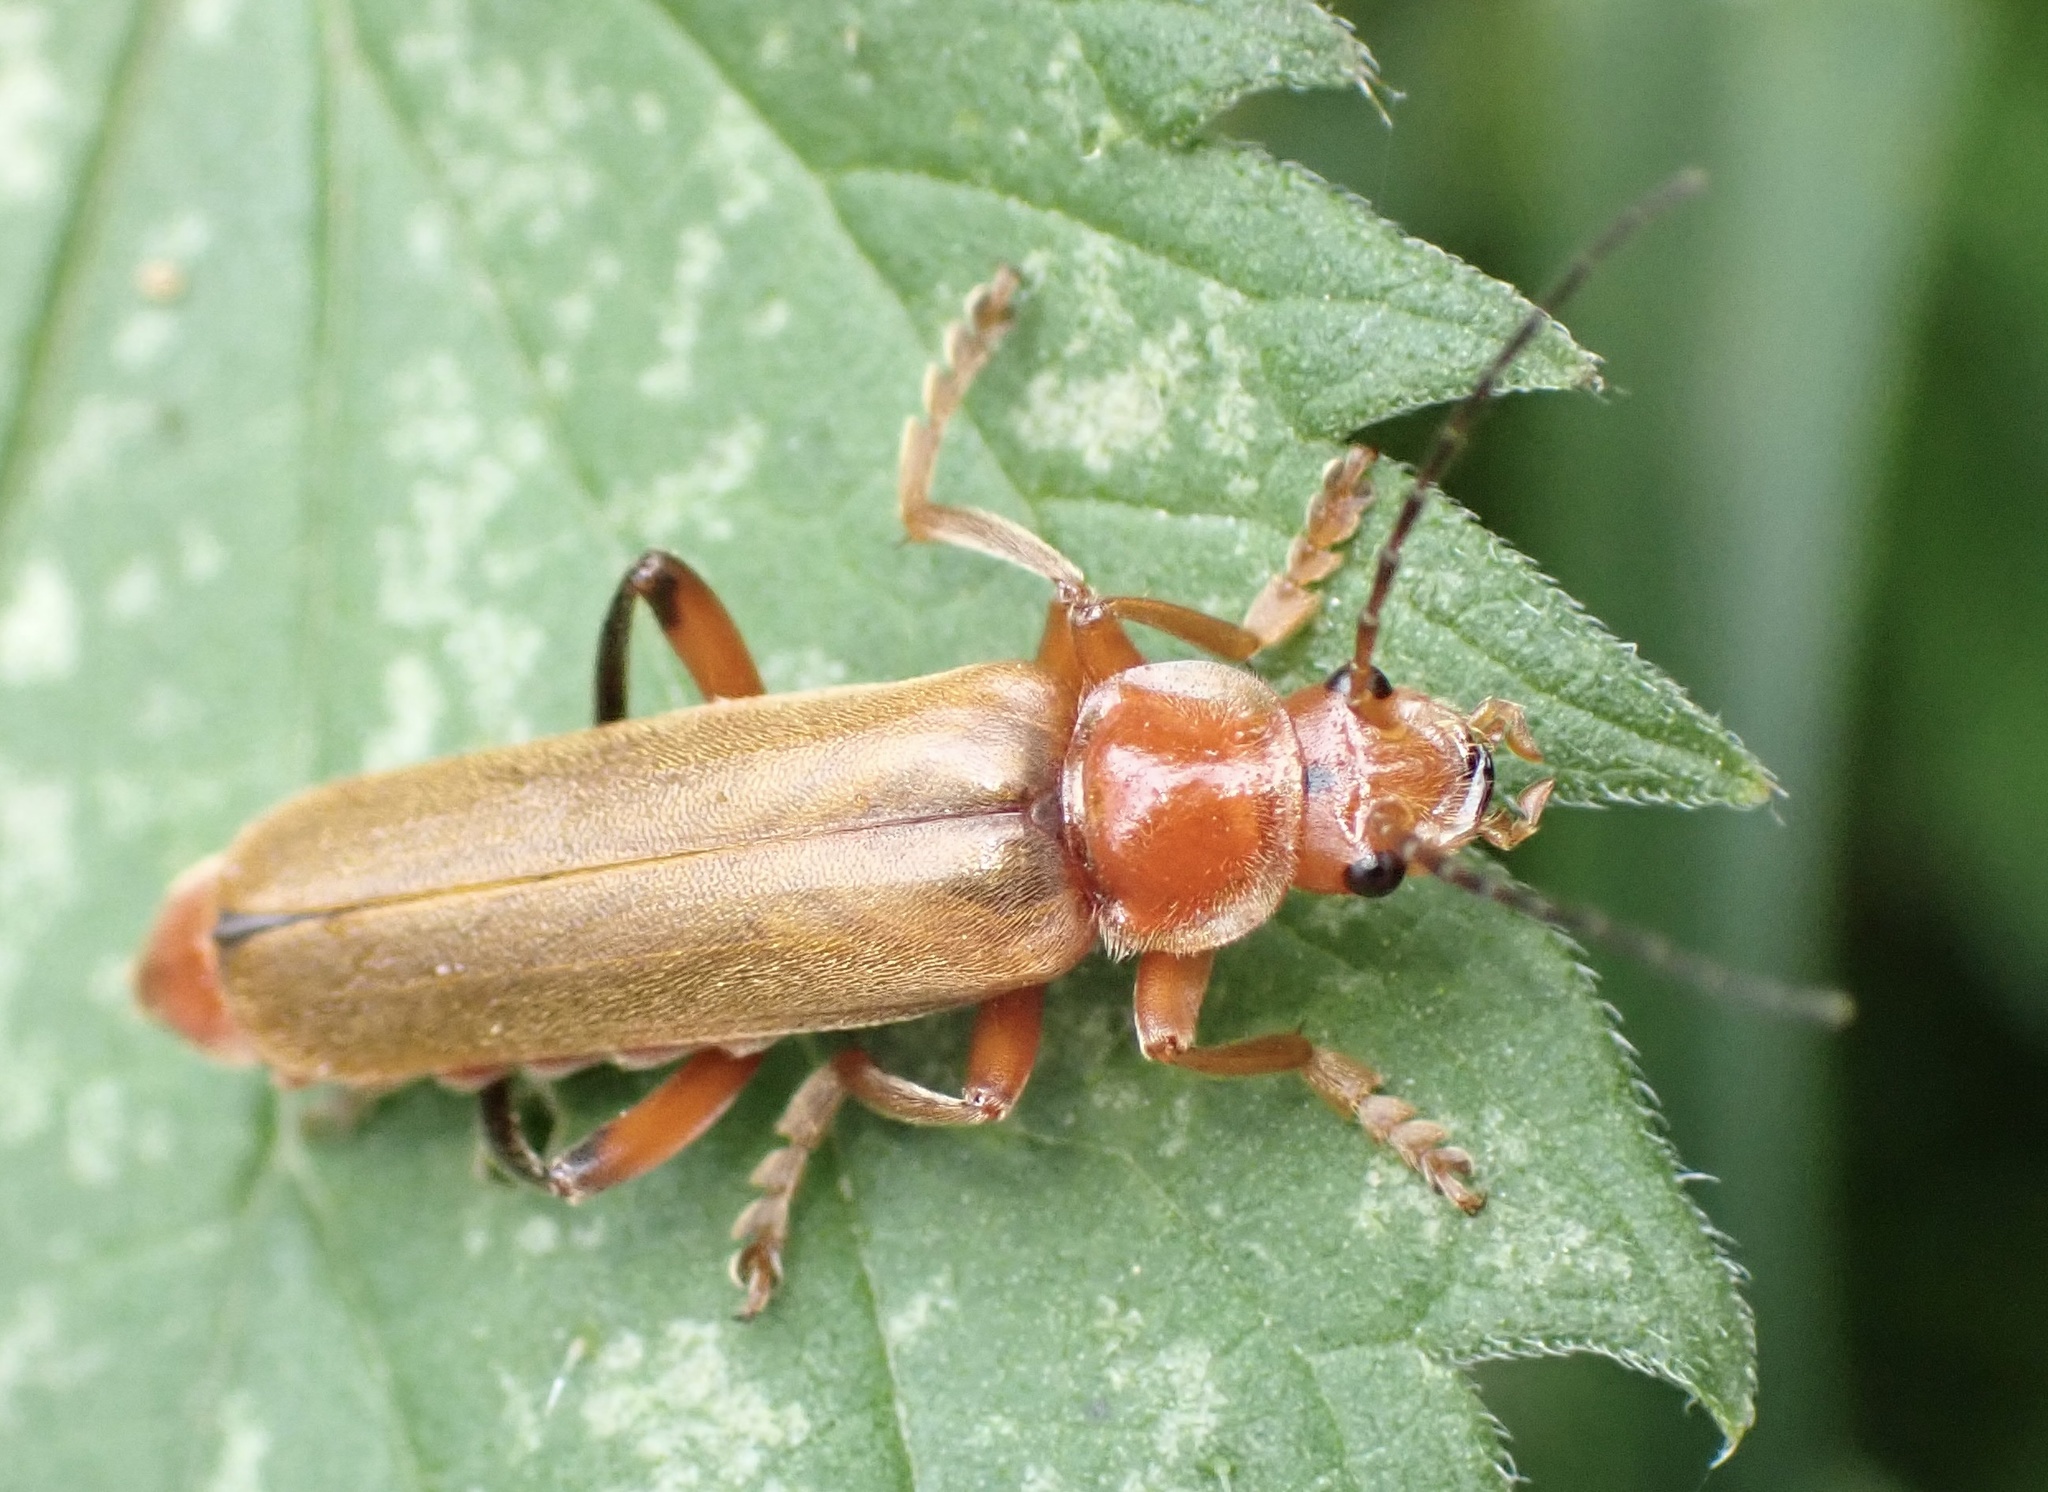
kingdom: Animalia
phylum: Arthropoda
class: Insecta
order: Coleoptera
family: Cantharidae
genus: Cantharis
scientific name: Cantharis livida
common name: Livid soldier beetle
